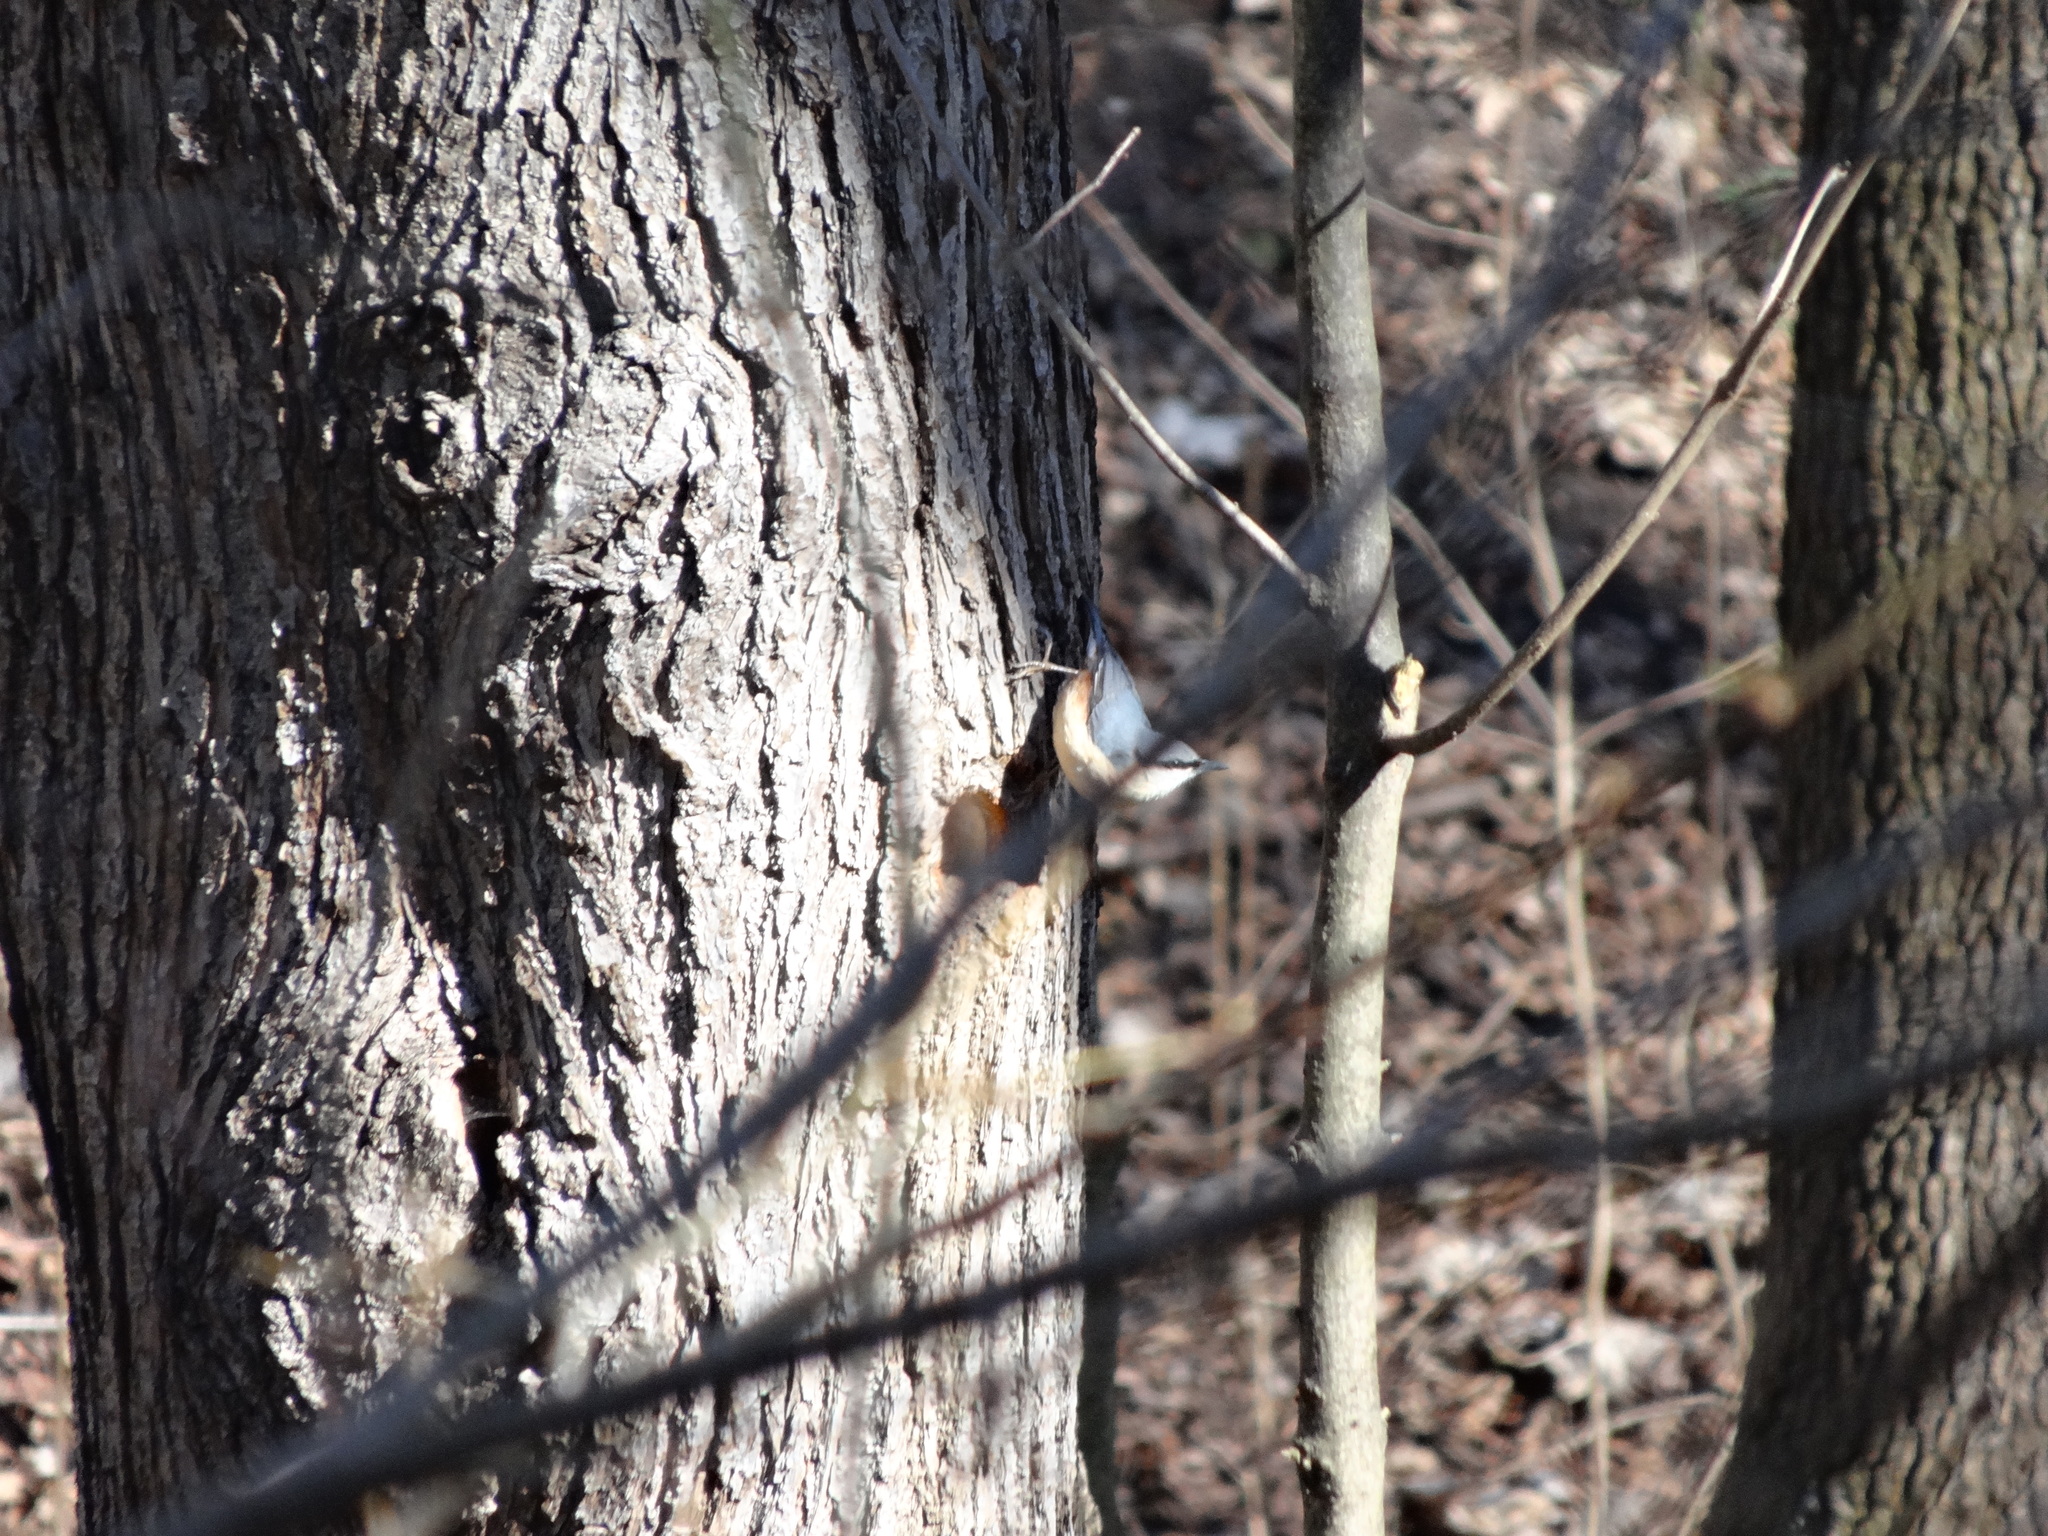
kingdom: Animalia
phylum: Chordata
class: Aves
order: Passeriformes
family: Sittidae
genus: Sitta
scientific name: Sitta europaea
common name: Eurasian nuthatch
